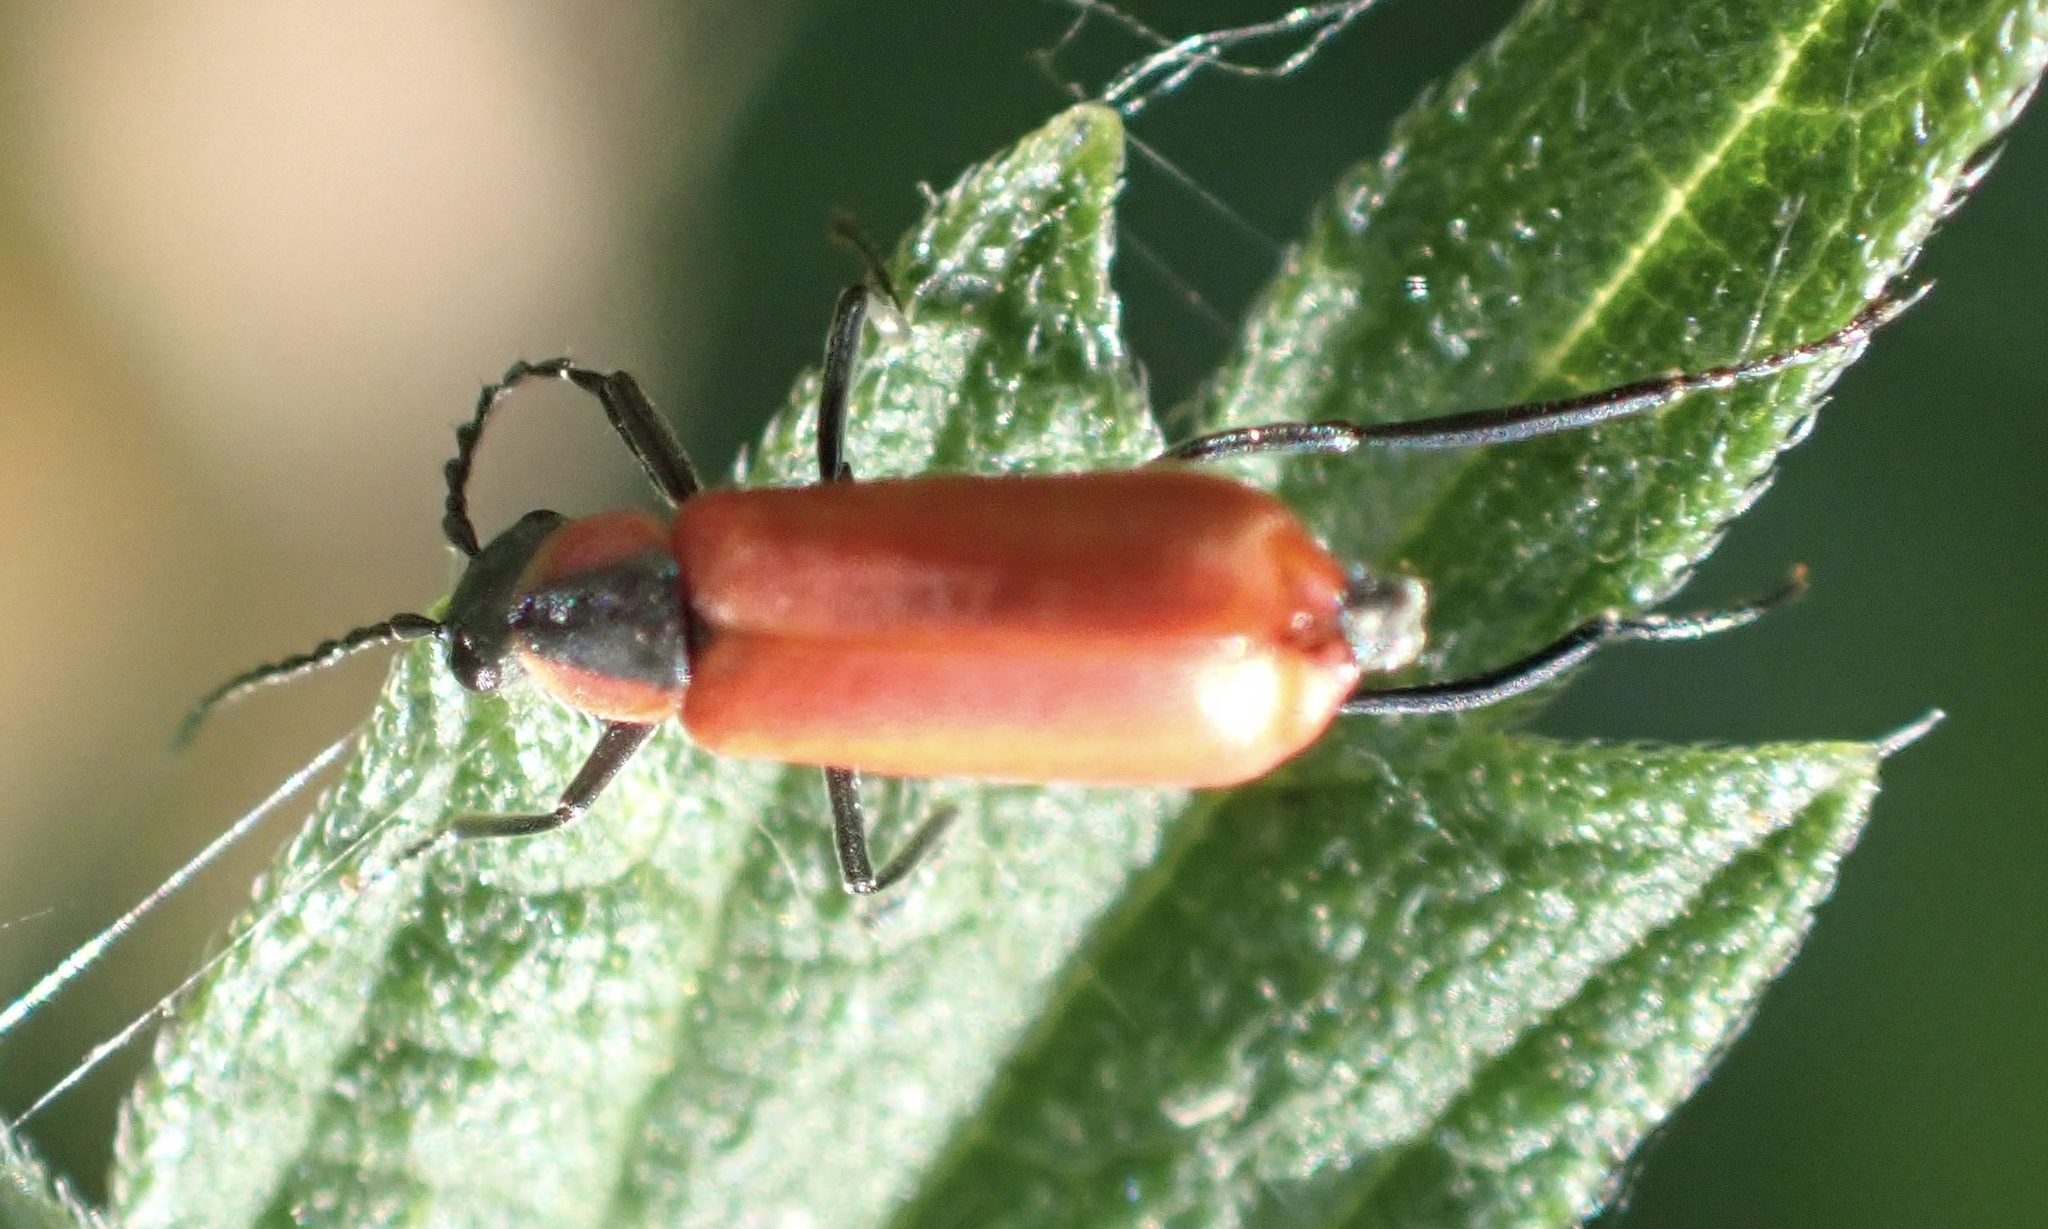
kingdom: Animalia
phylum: Arthropoda
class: Insecta
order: Coleoptera
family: Melyridae
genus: Anthocomus
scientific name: Anthocomus rufus
